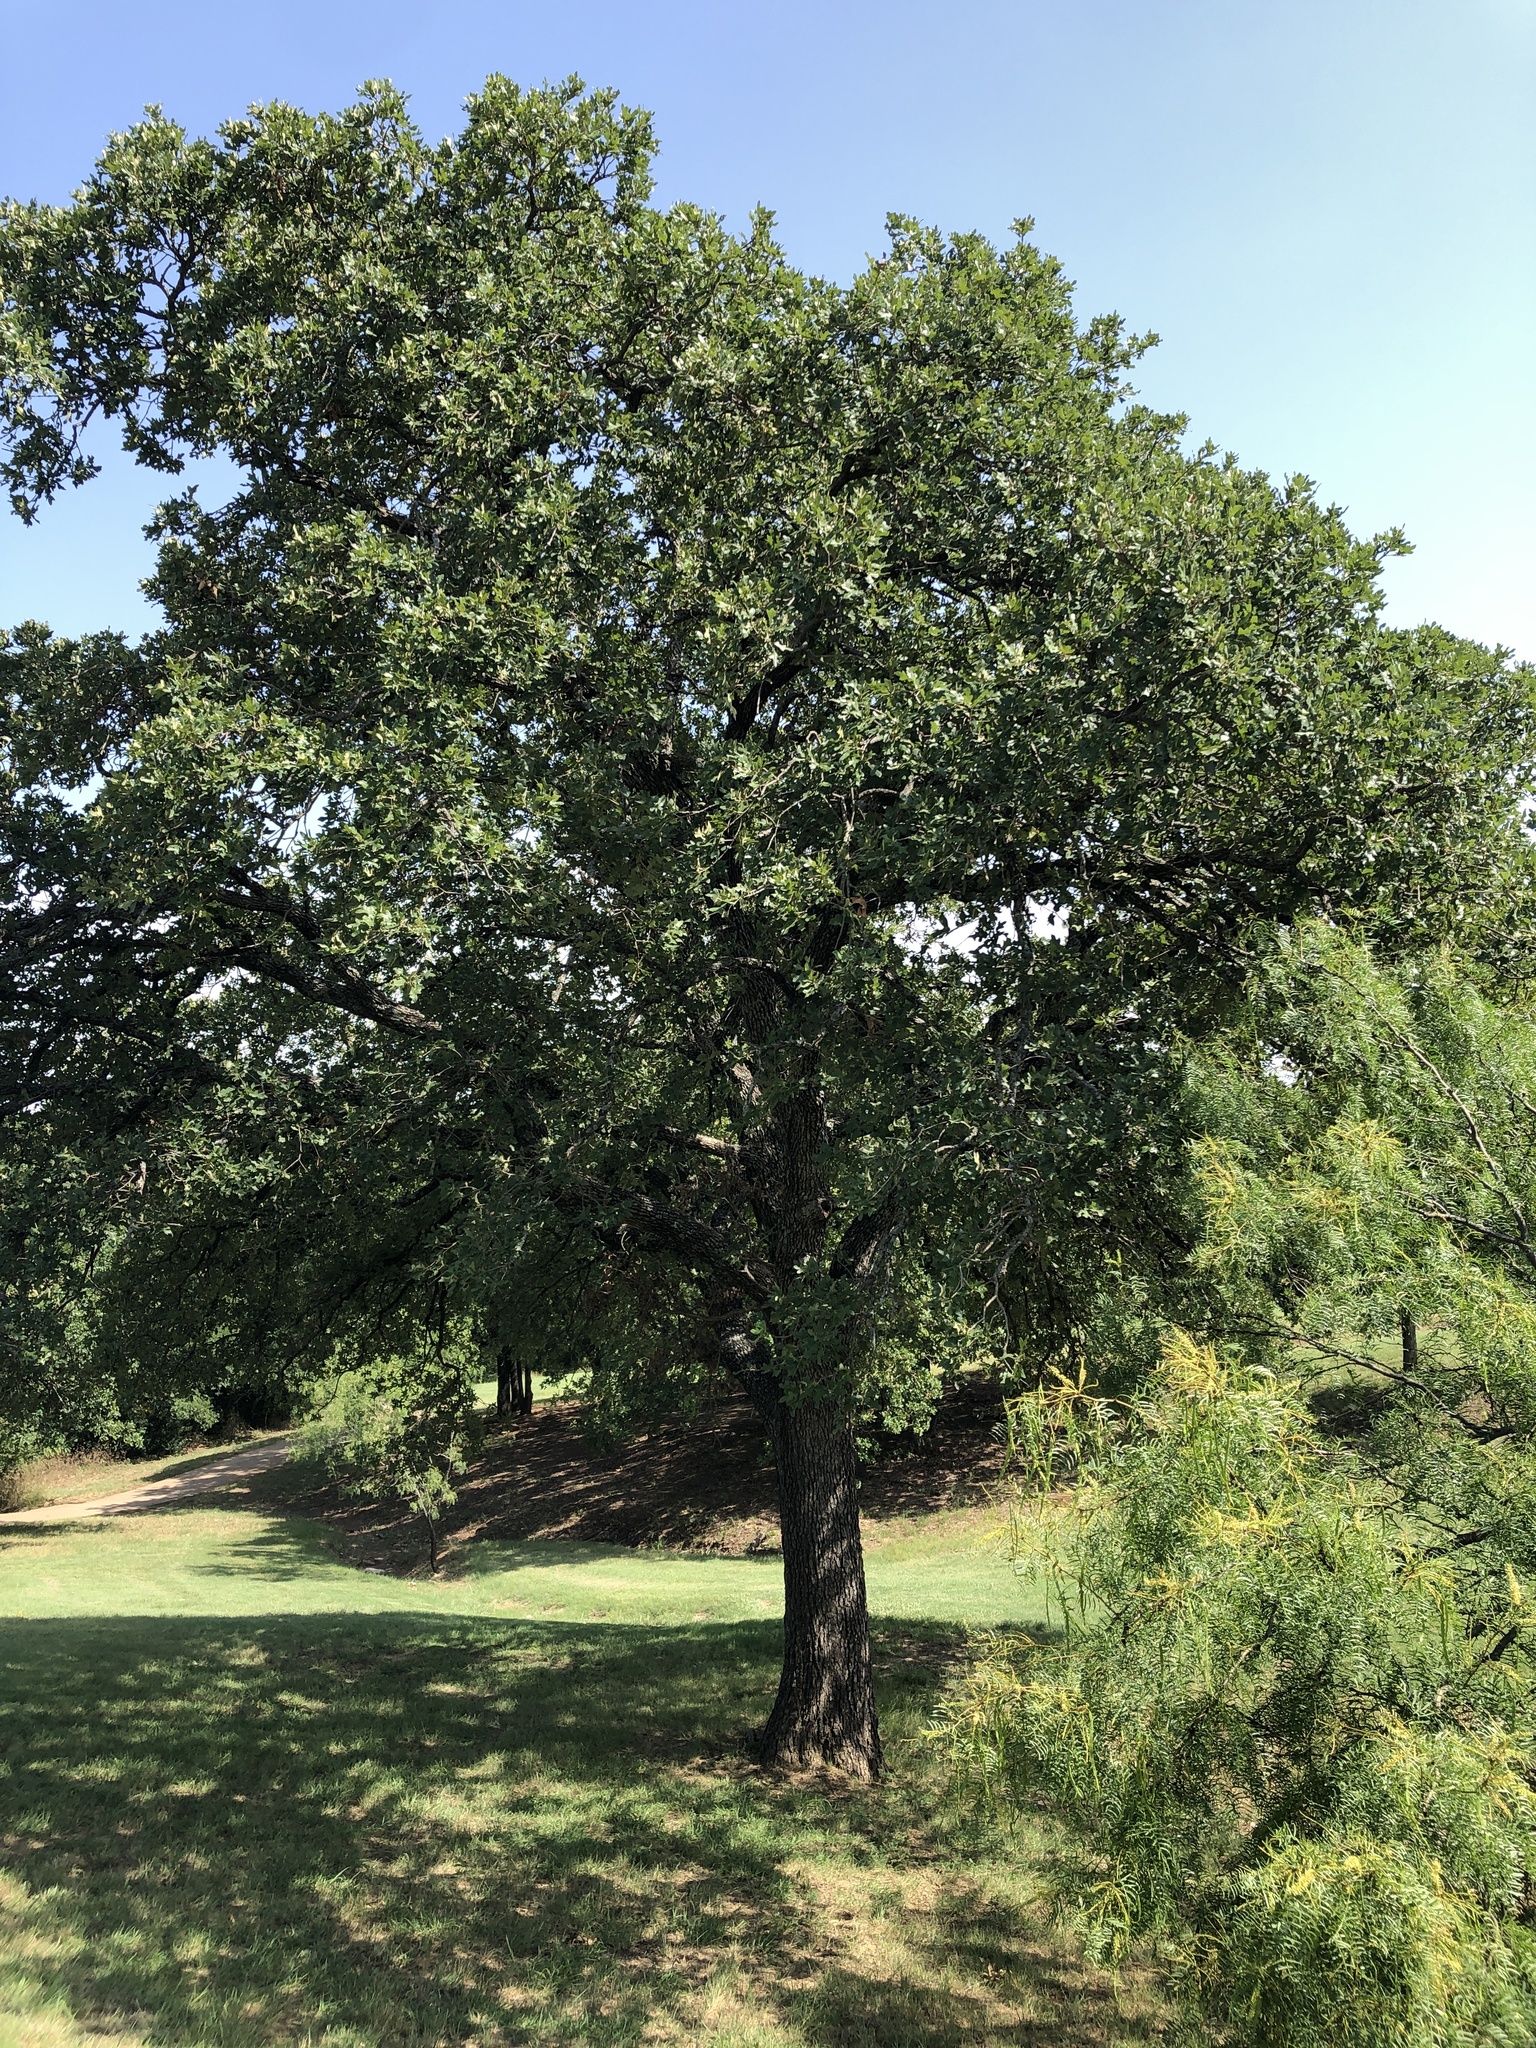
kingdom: Plantae
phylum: Tracheophyta
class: Magnoliopsida
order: Fagales
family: Fagaceae
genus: Quercus
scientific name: Quercus stellata
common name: Post oak
